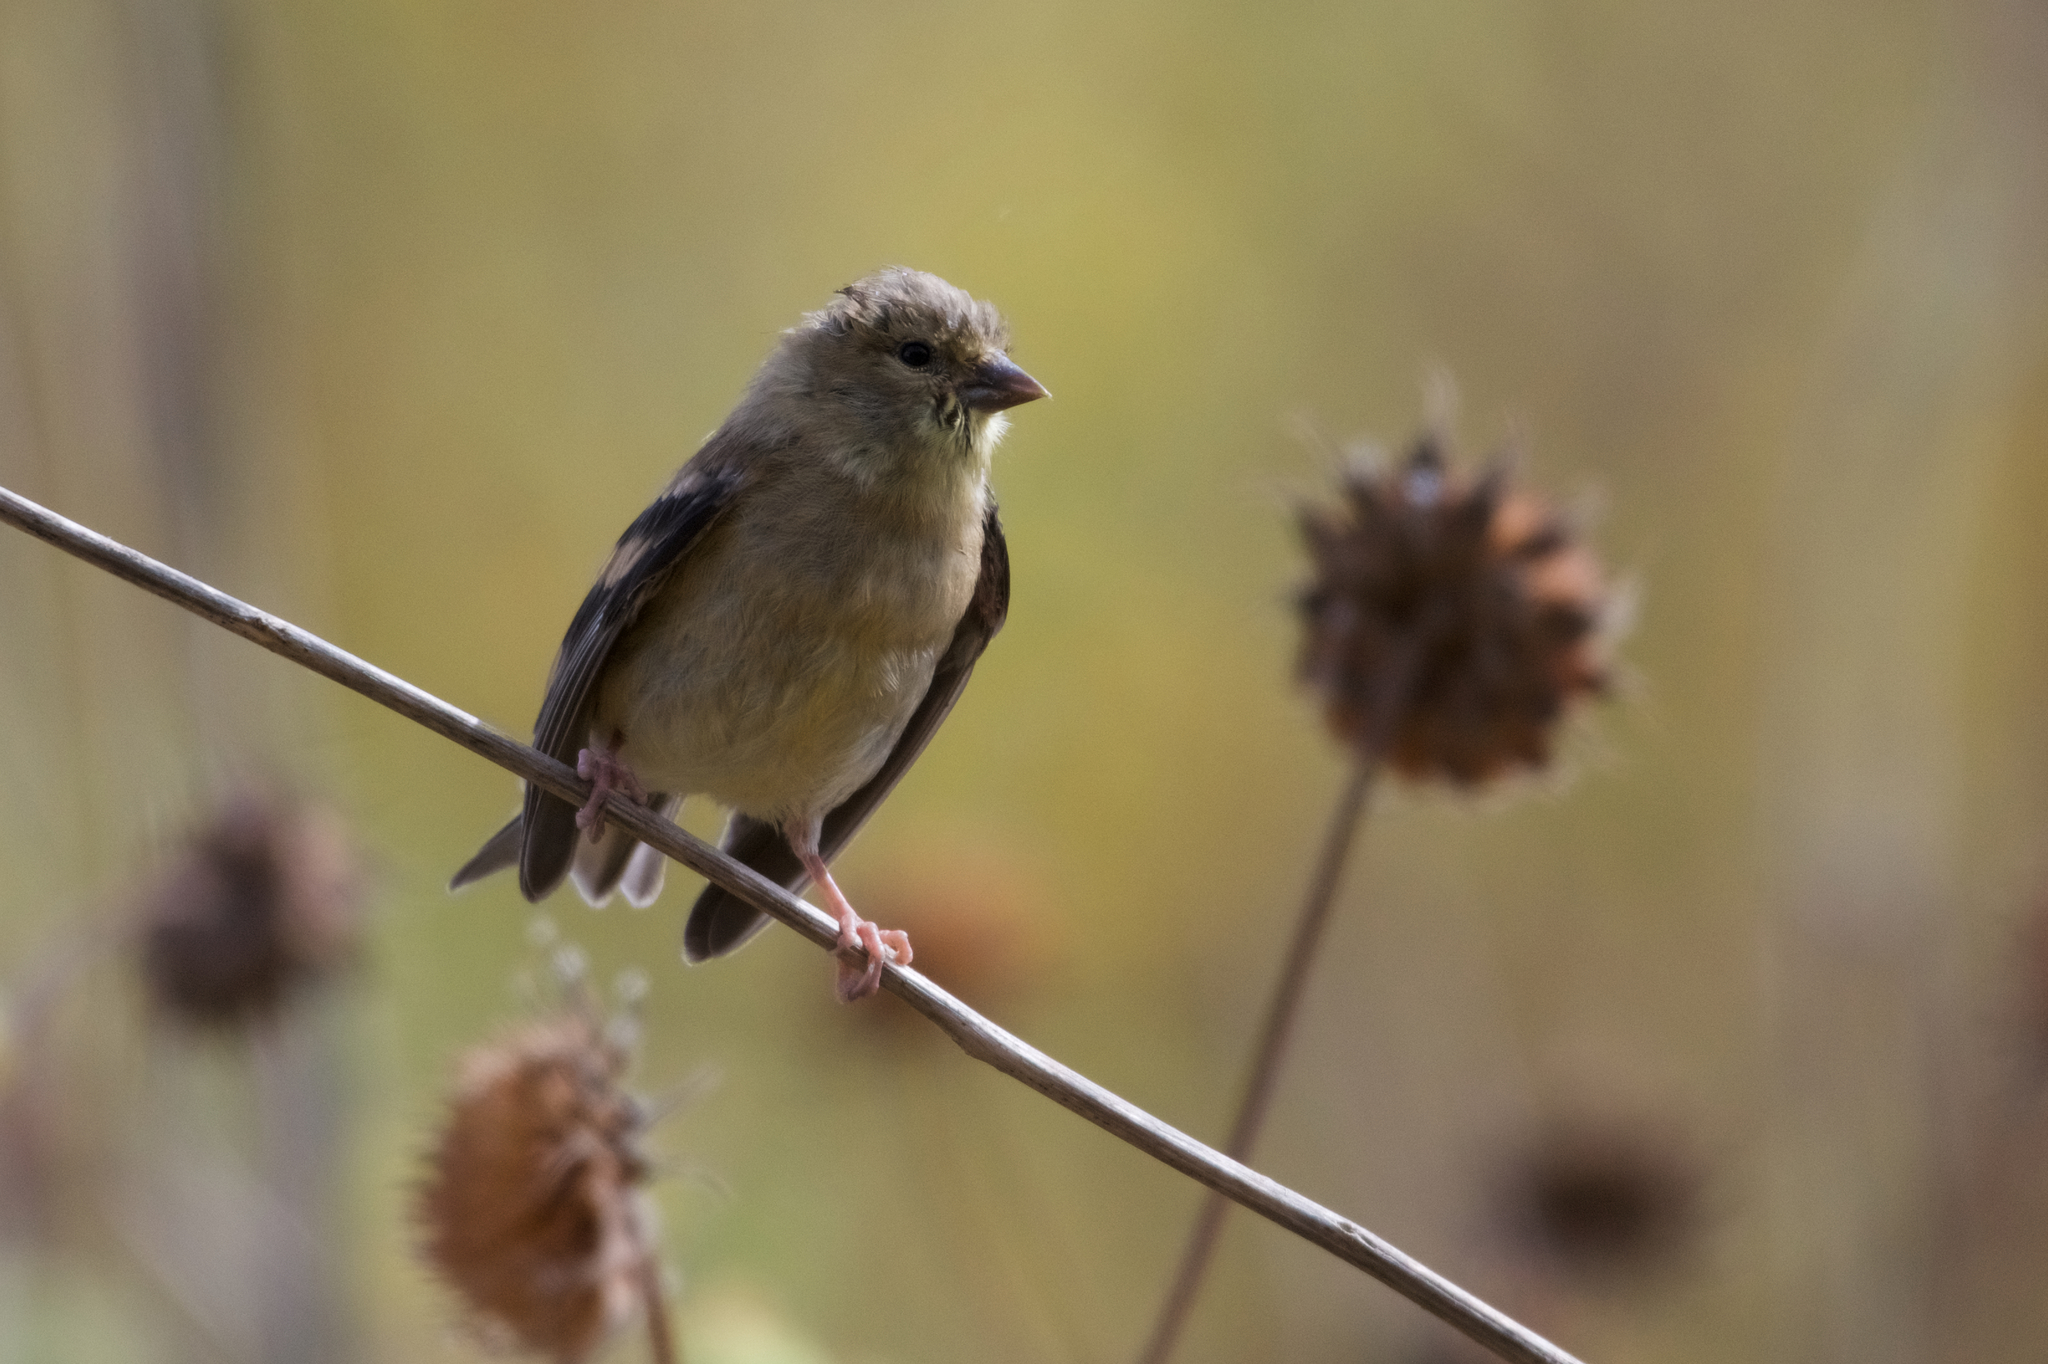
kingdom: Animalia
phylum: Chordata
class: Aves
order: Passeriformes
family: Fringillidae
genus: Spinus
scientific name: Spinus psaltria
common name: Lesser goldfinch
